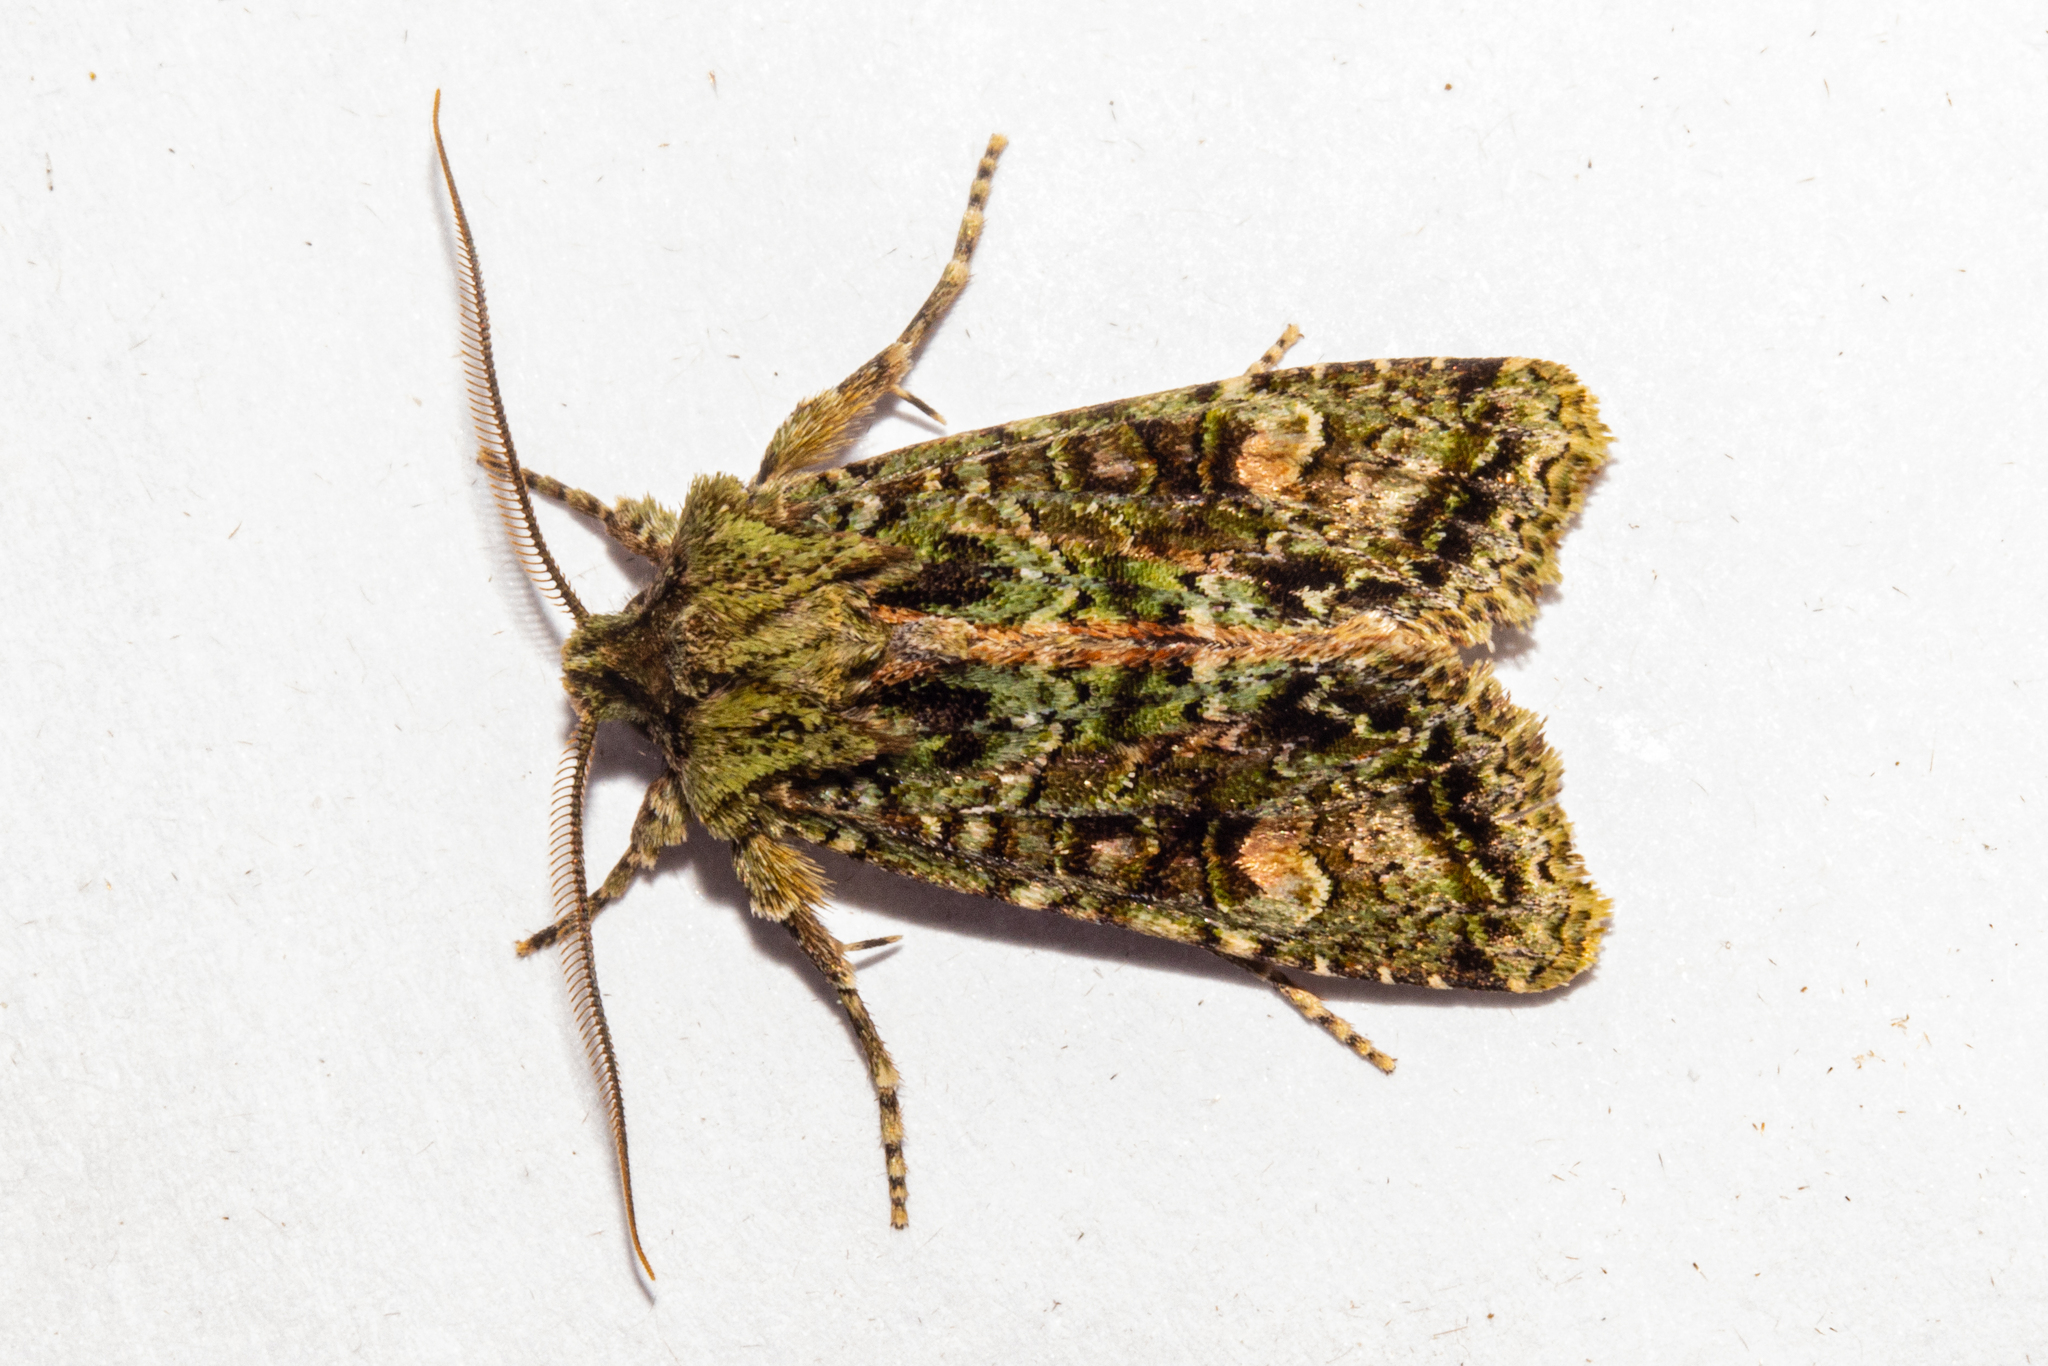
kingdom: Animalia
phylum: Arthropoda
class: Insecta
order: Lepidoptera
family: Noctuidae
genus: Ichneutica
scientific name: Ichneutica
